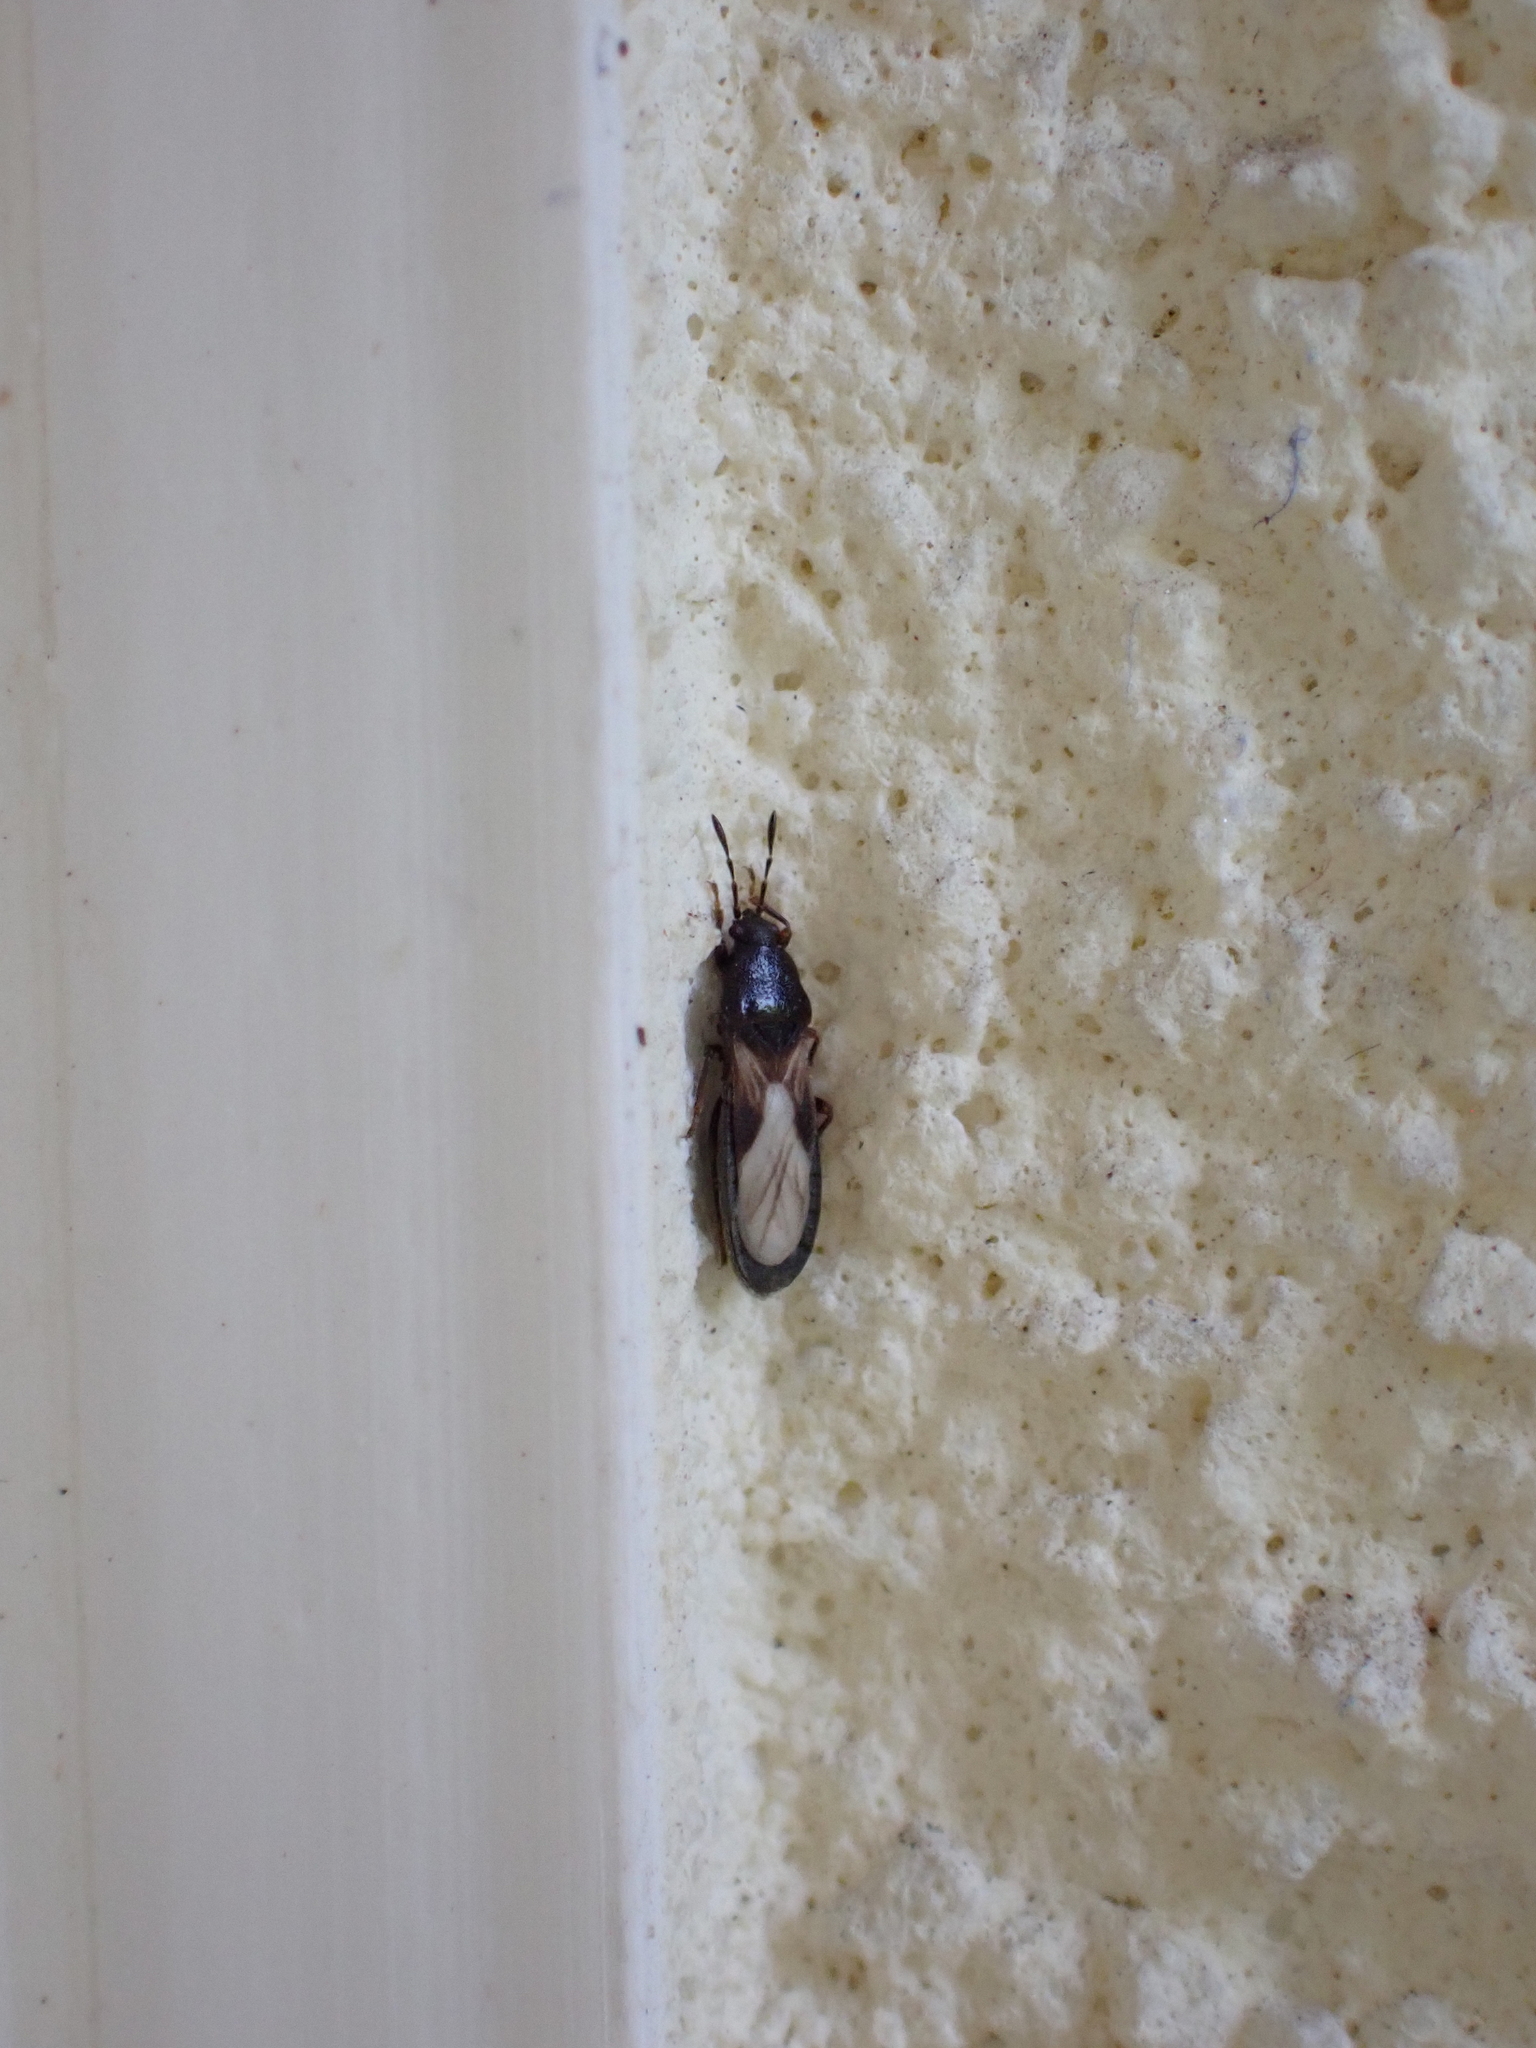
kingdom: Animalia
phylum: Arthropoda
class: Insecta
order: Hemiptera
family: Blissidae
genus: Dimorphopterus
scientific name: Dimorphopterus spinolae
